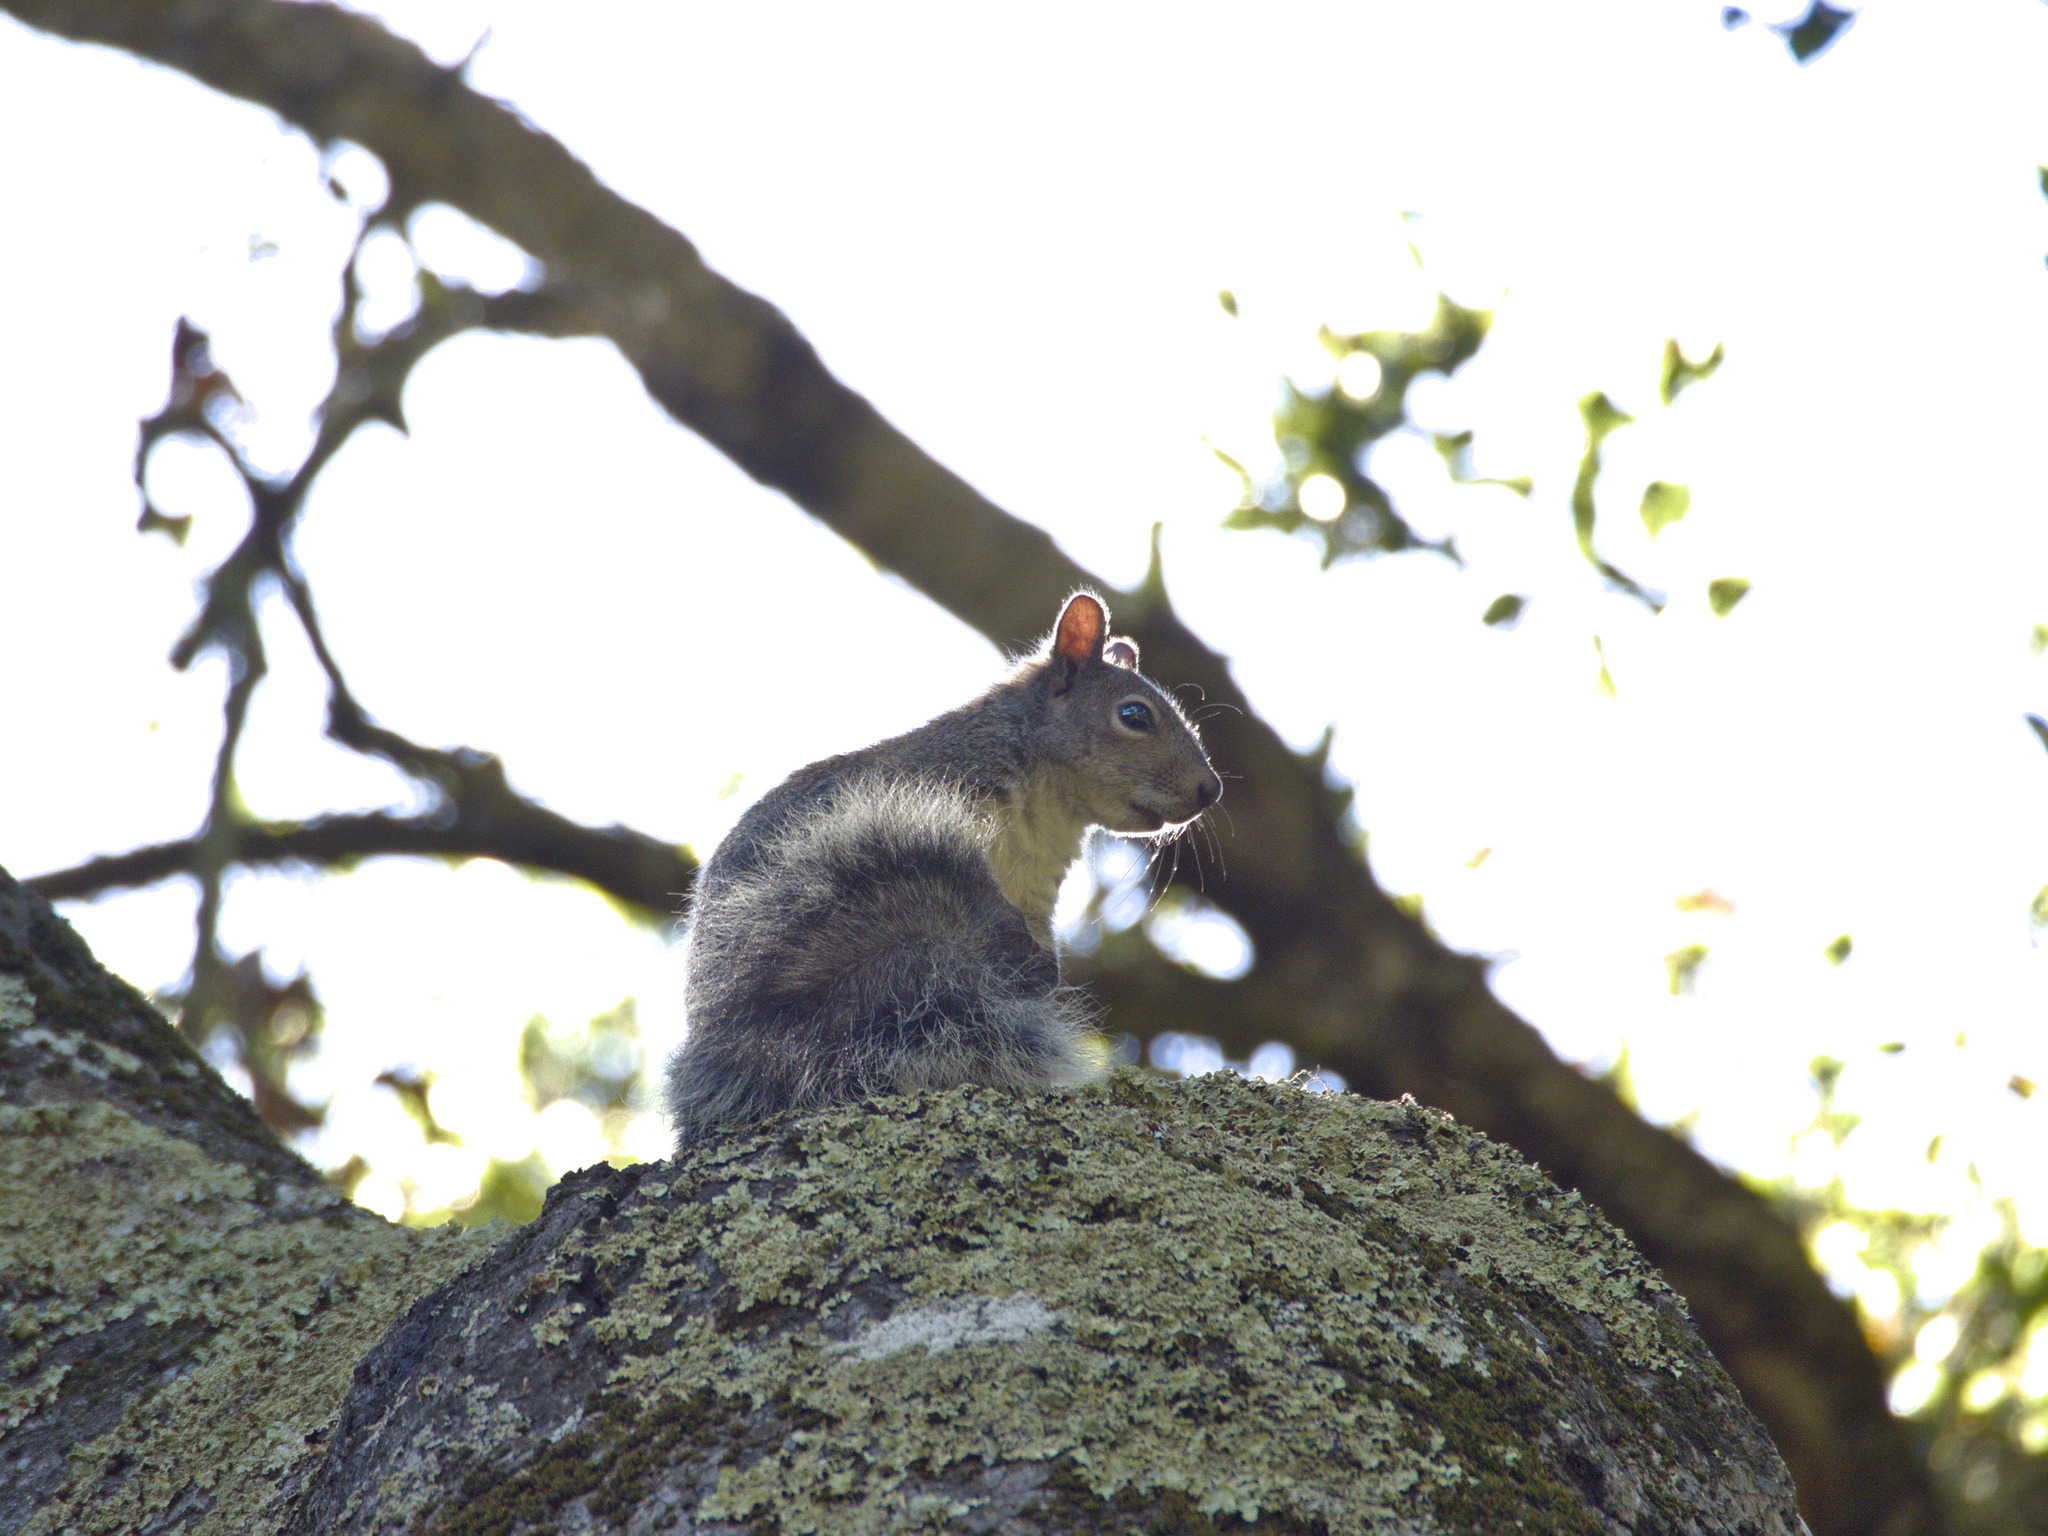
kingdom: Animalia
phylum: Chordata
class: Mammalia
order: Rodentia
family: Sciuridae
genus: Sciurus
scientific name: Sciurus griseus
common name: Western gray squirrel
